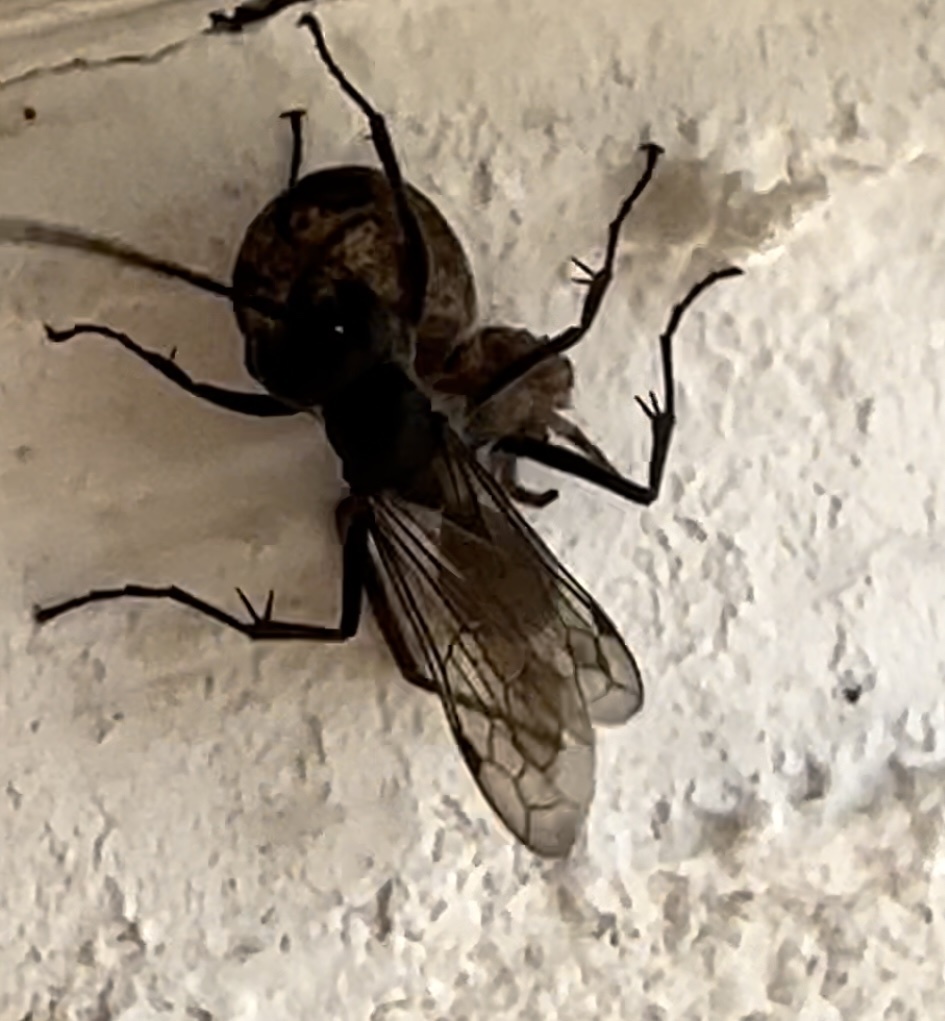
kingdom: Animalia
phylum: Arthropoda
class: Insecta
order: Hymenoptera
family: Pompilidae
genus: Auplopus
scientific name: Auplopus carbonarius
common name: Spider wasp
